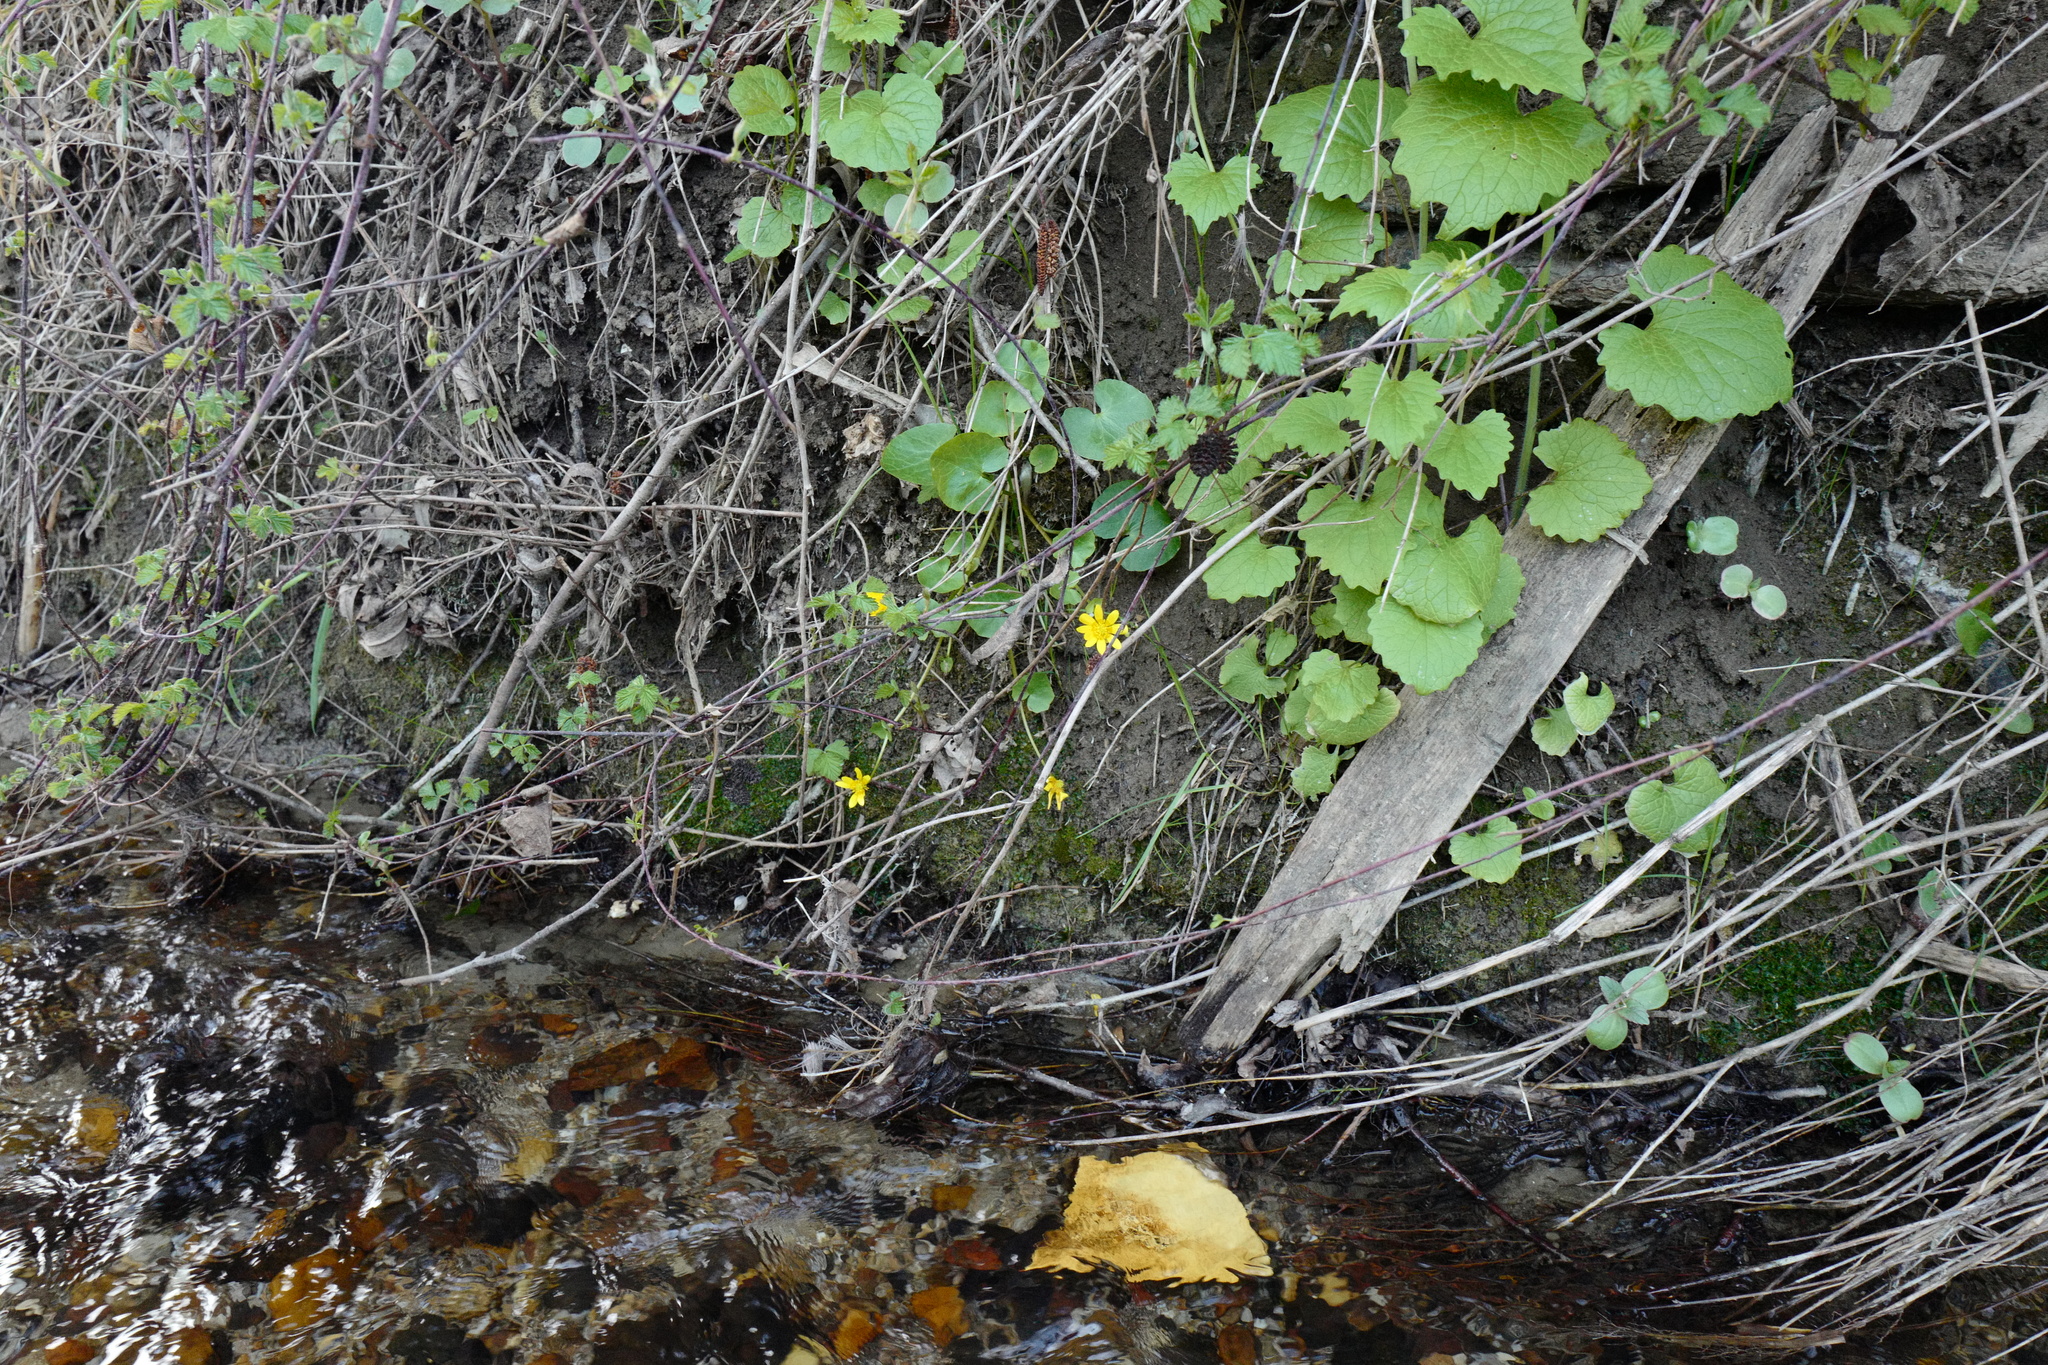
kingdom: Plantae
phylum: Tracheophyta
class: Magnoliopsida
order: Ranunculales
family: Ranunculaceae
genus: Ficaria
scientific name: Ficaria verna
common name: Lesser celandine
